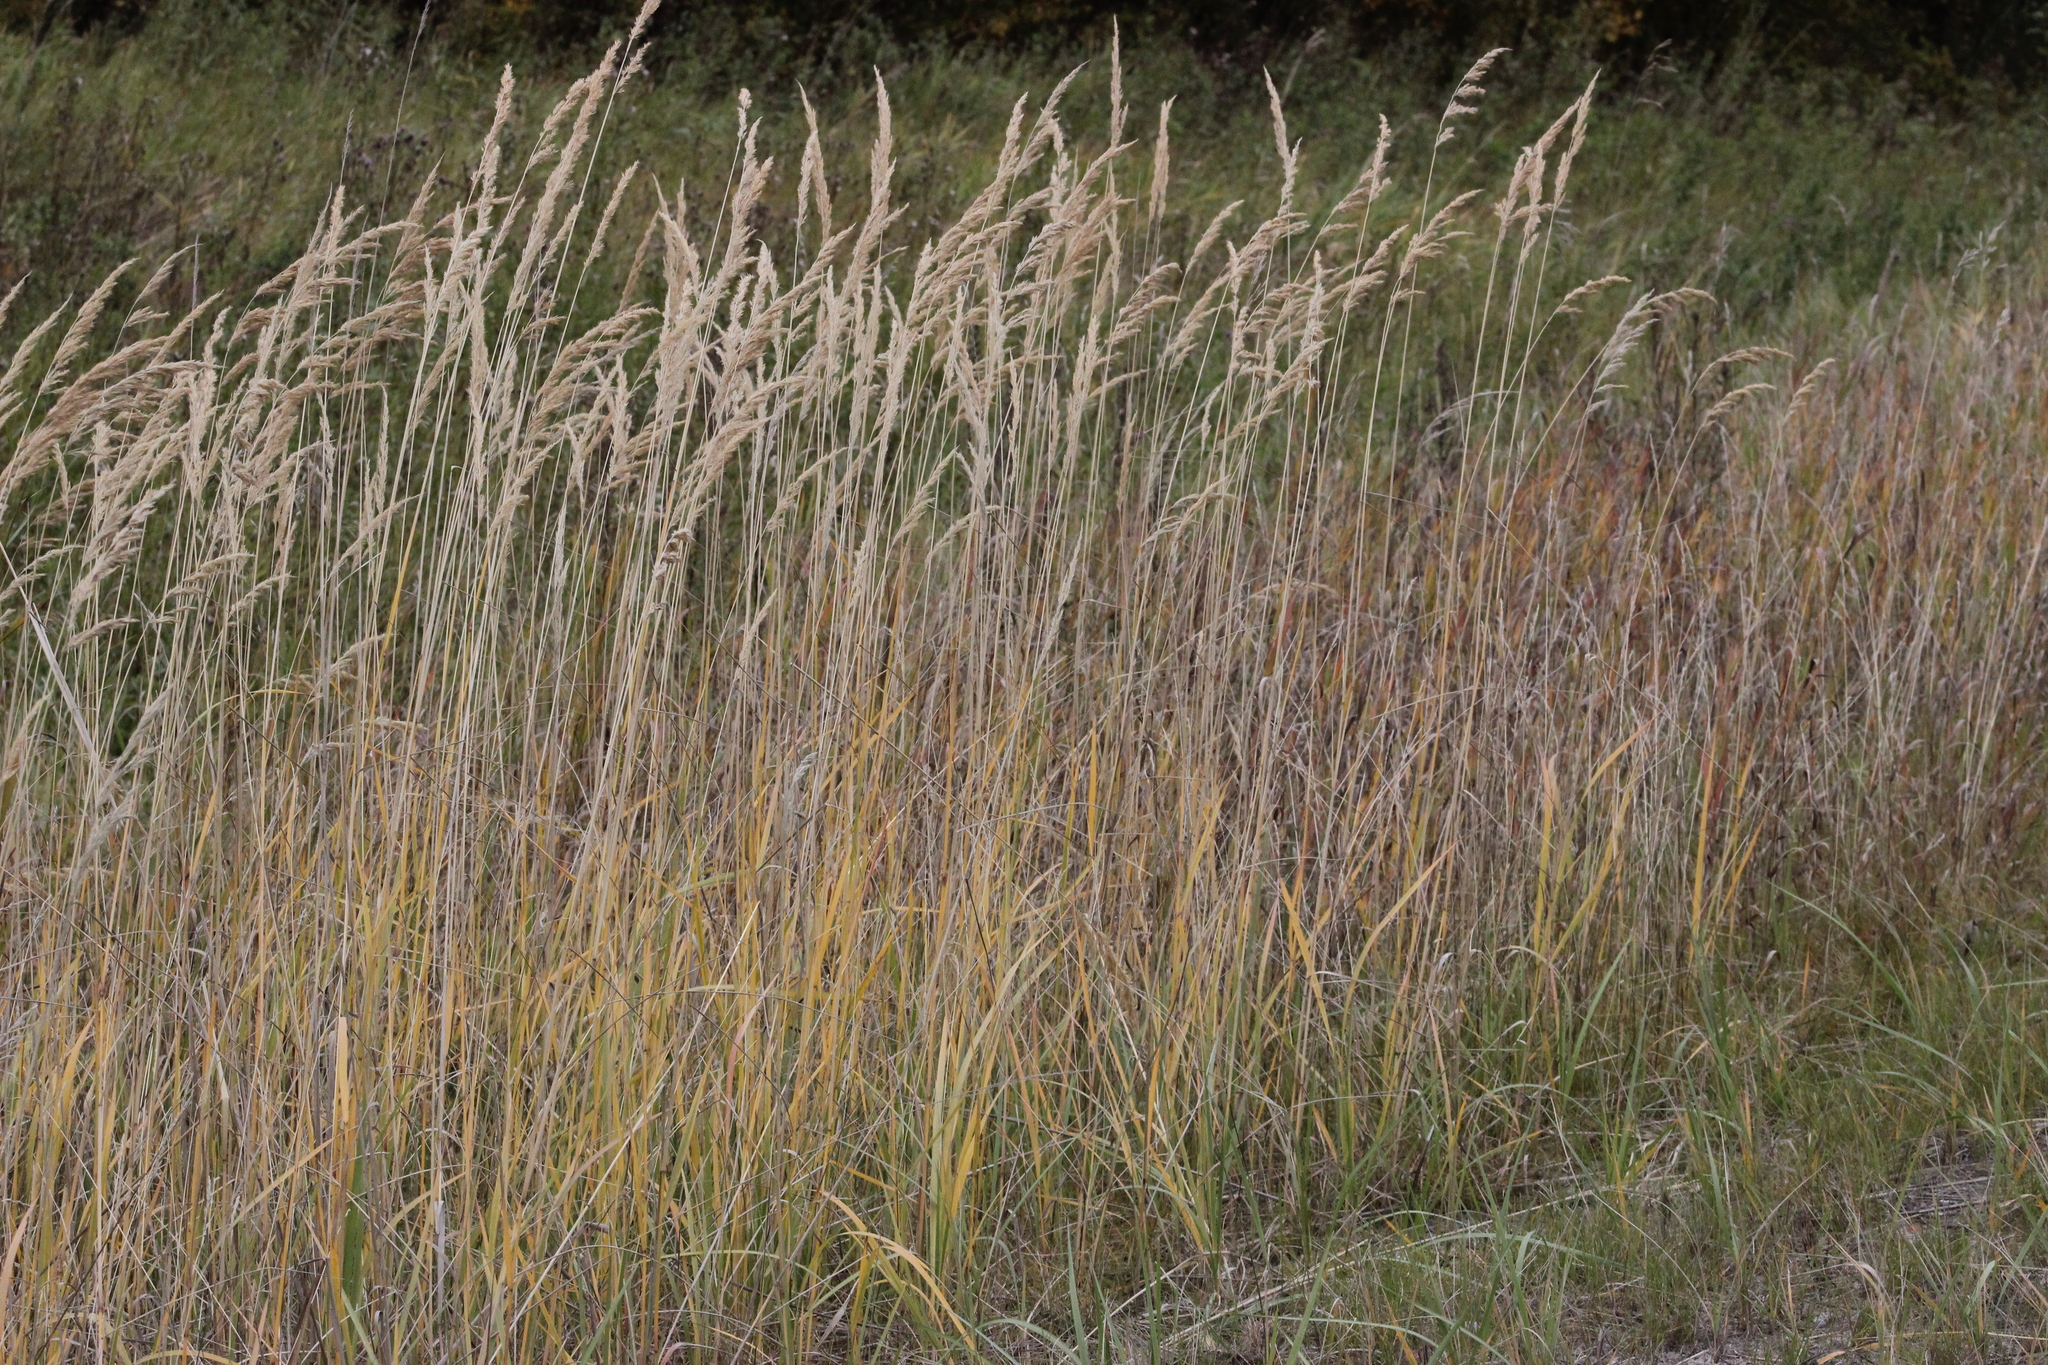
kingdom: Plantae
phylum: Tracheophyta
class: Liliopsida
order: Poales
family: Poaceae
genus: Calamagrostis
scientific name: Calamagrostis epigejos
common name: Wood small-reed
